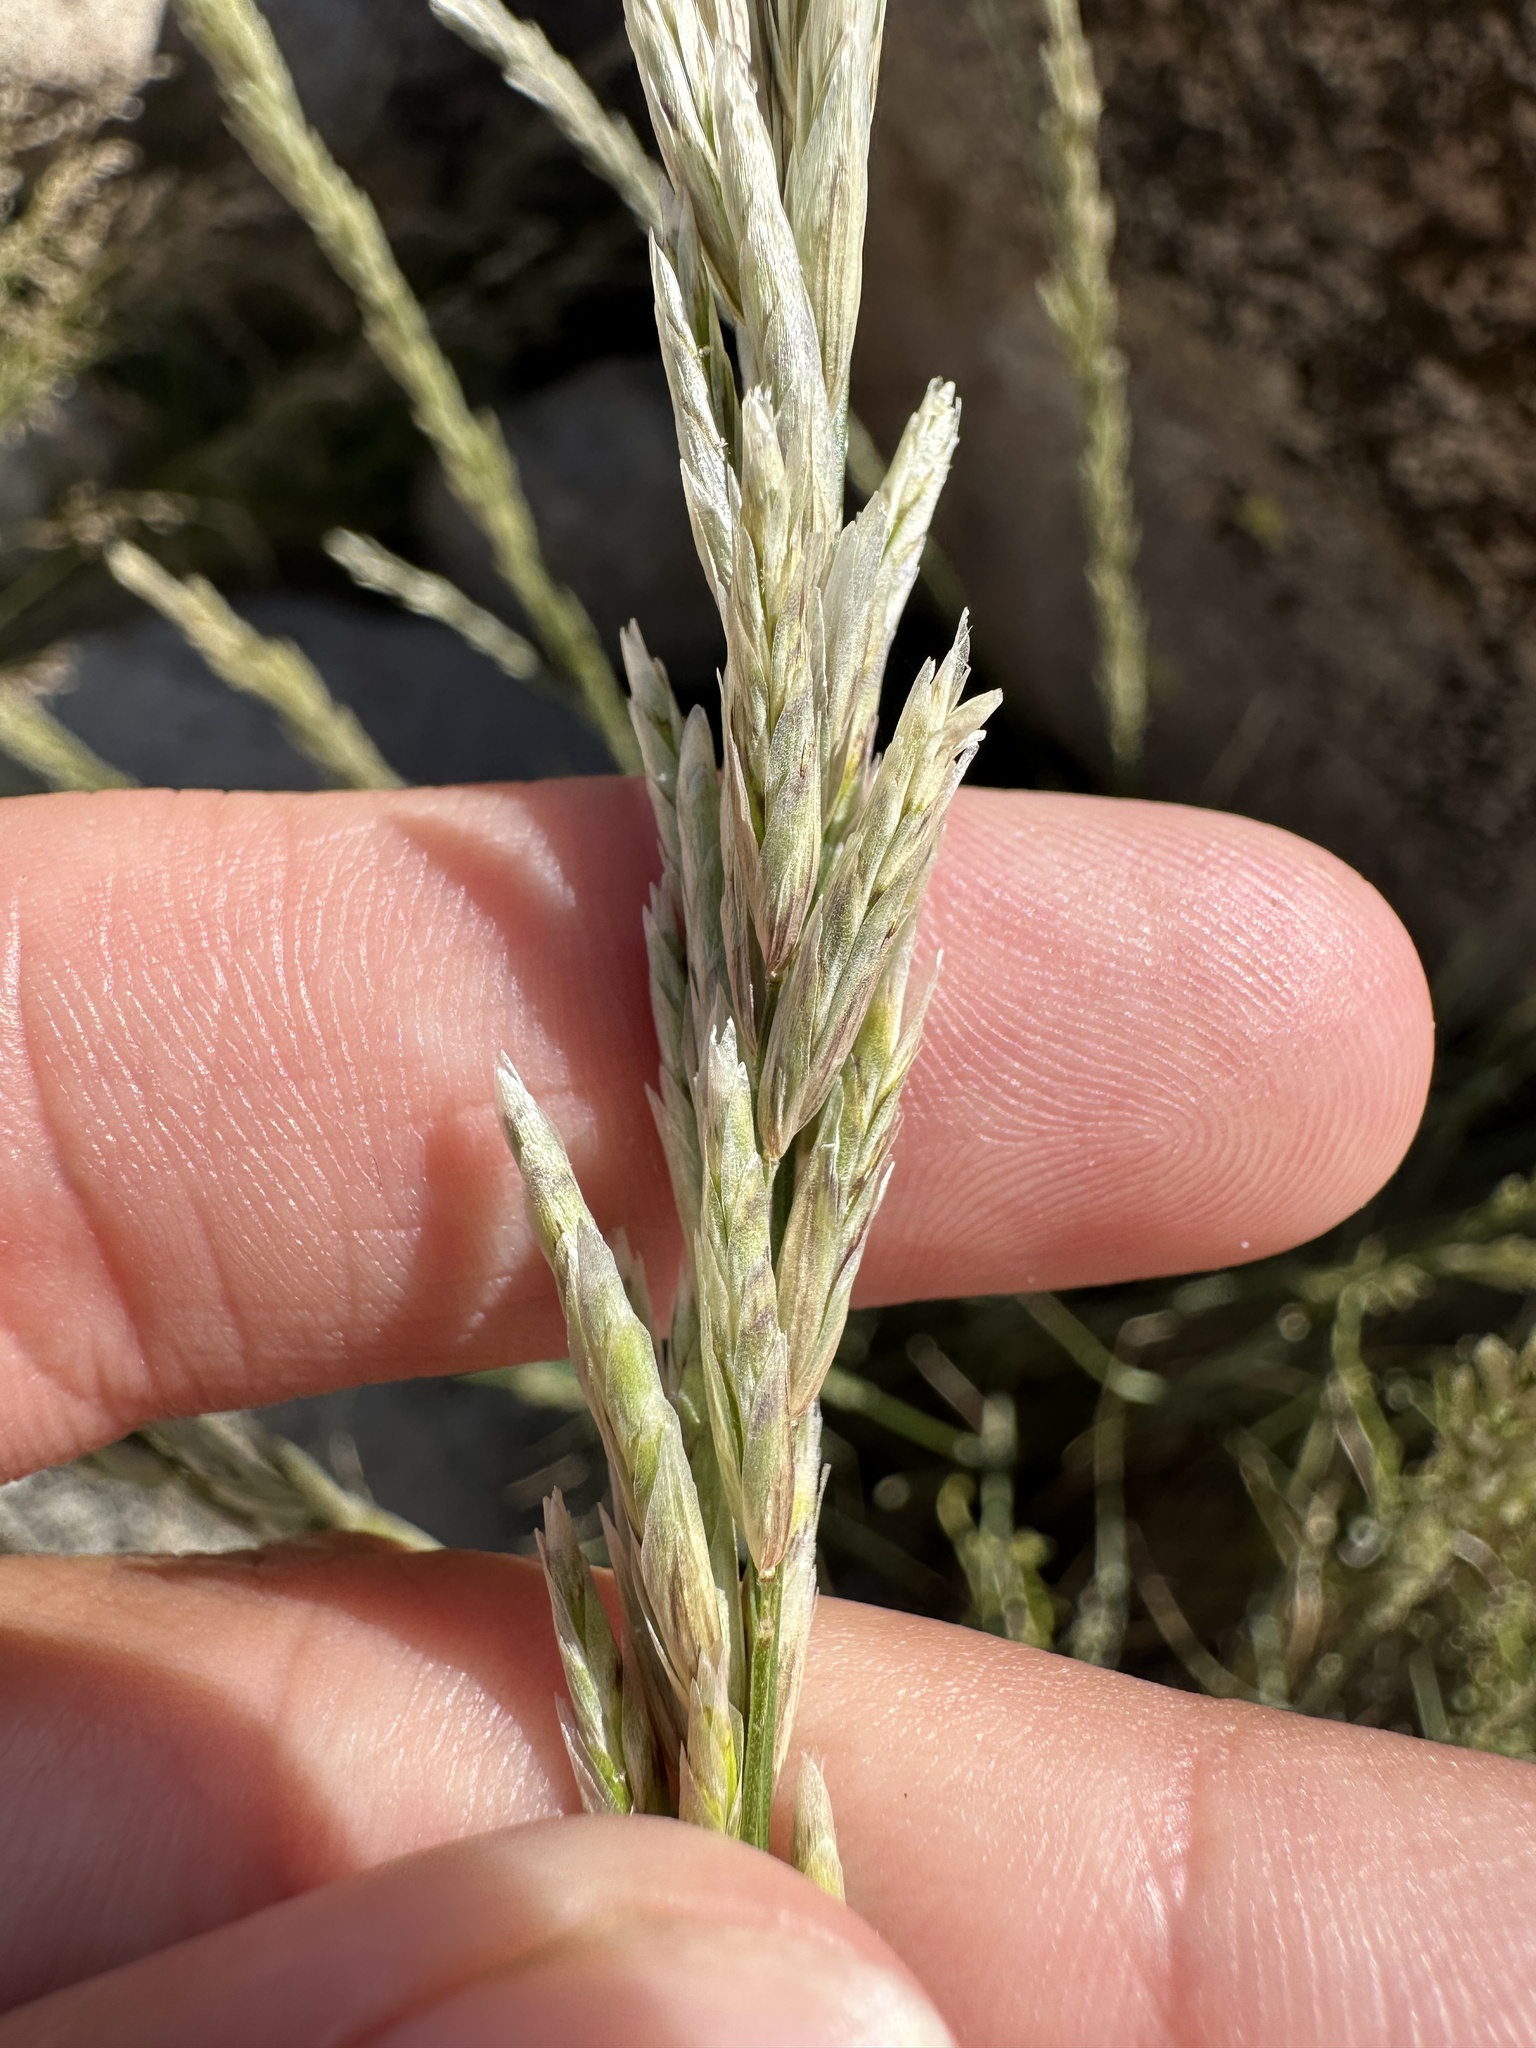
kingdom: Plantae
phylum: Tracheophyta
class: Liliopsida
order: Poales
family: Poaceae
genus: Melica
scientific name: Melica frutescens
